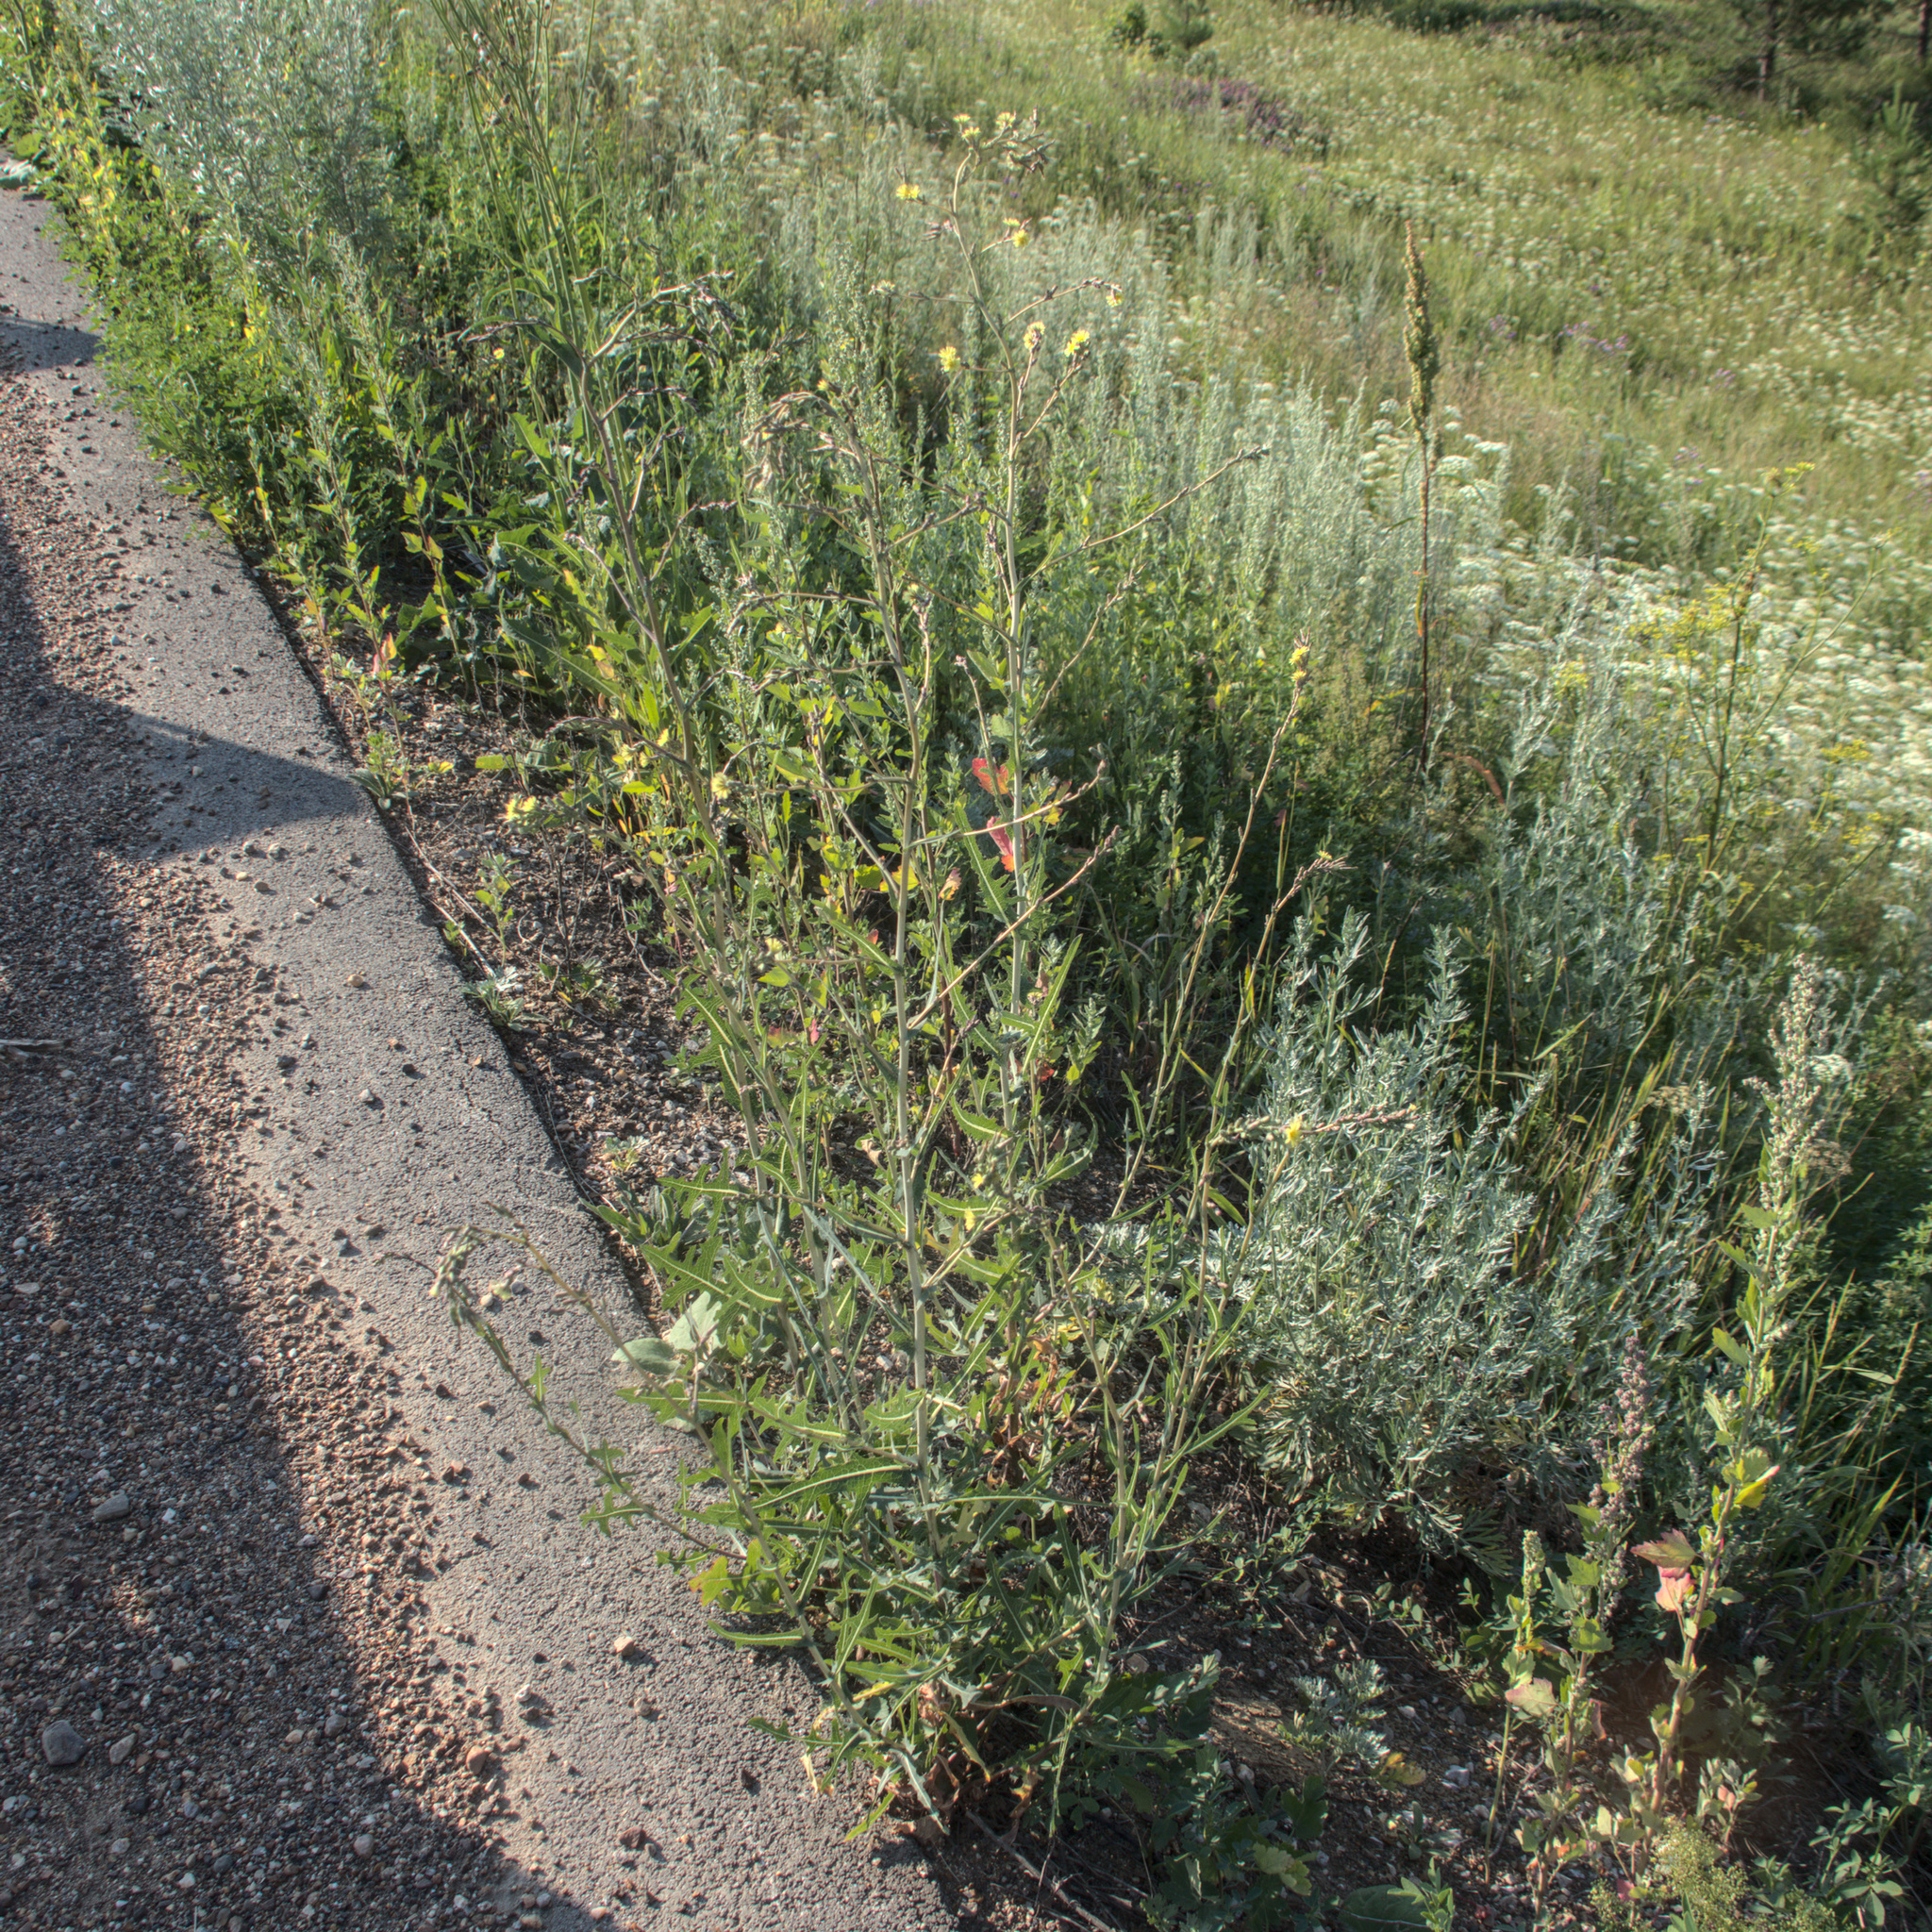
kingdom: Plantae
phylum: Tracheophyta
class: Magnoliopsida
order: Asterales
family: Asteraceae
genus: Lactuca
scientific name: Lactuca serriola
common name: Prickly lettuce
